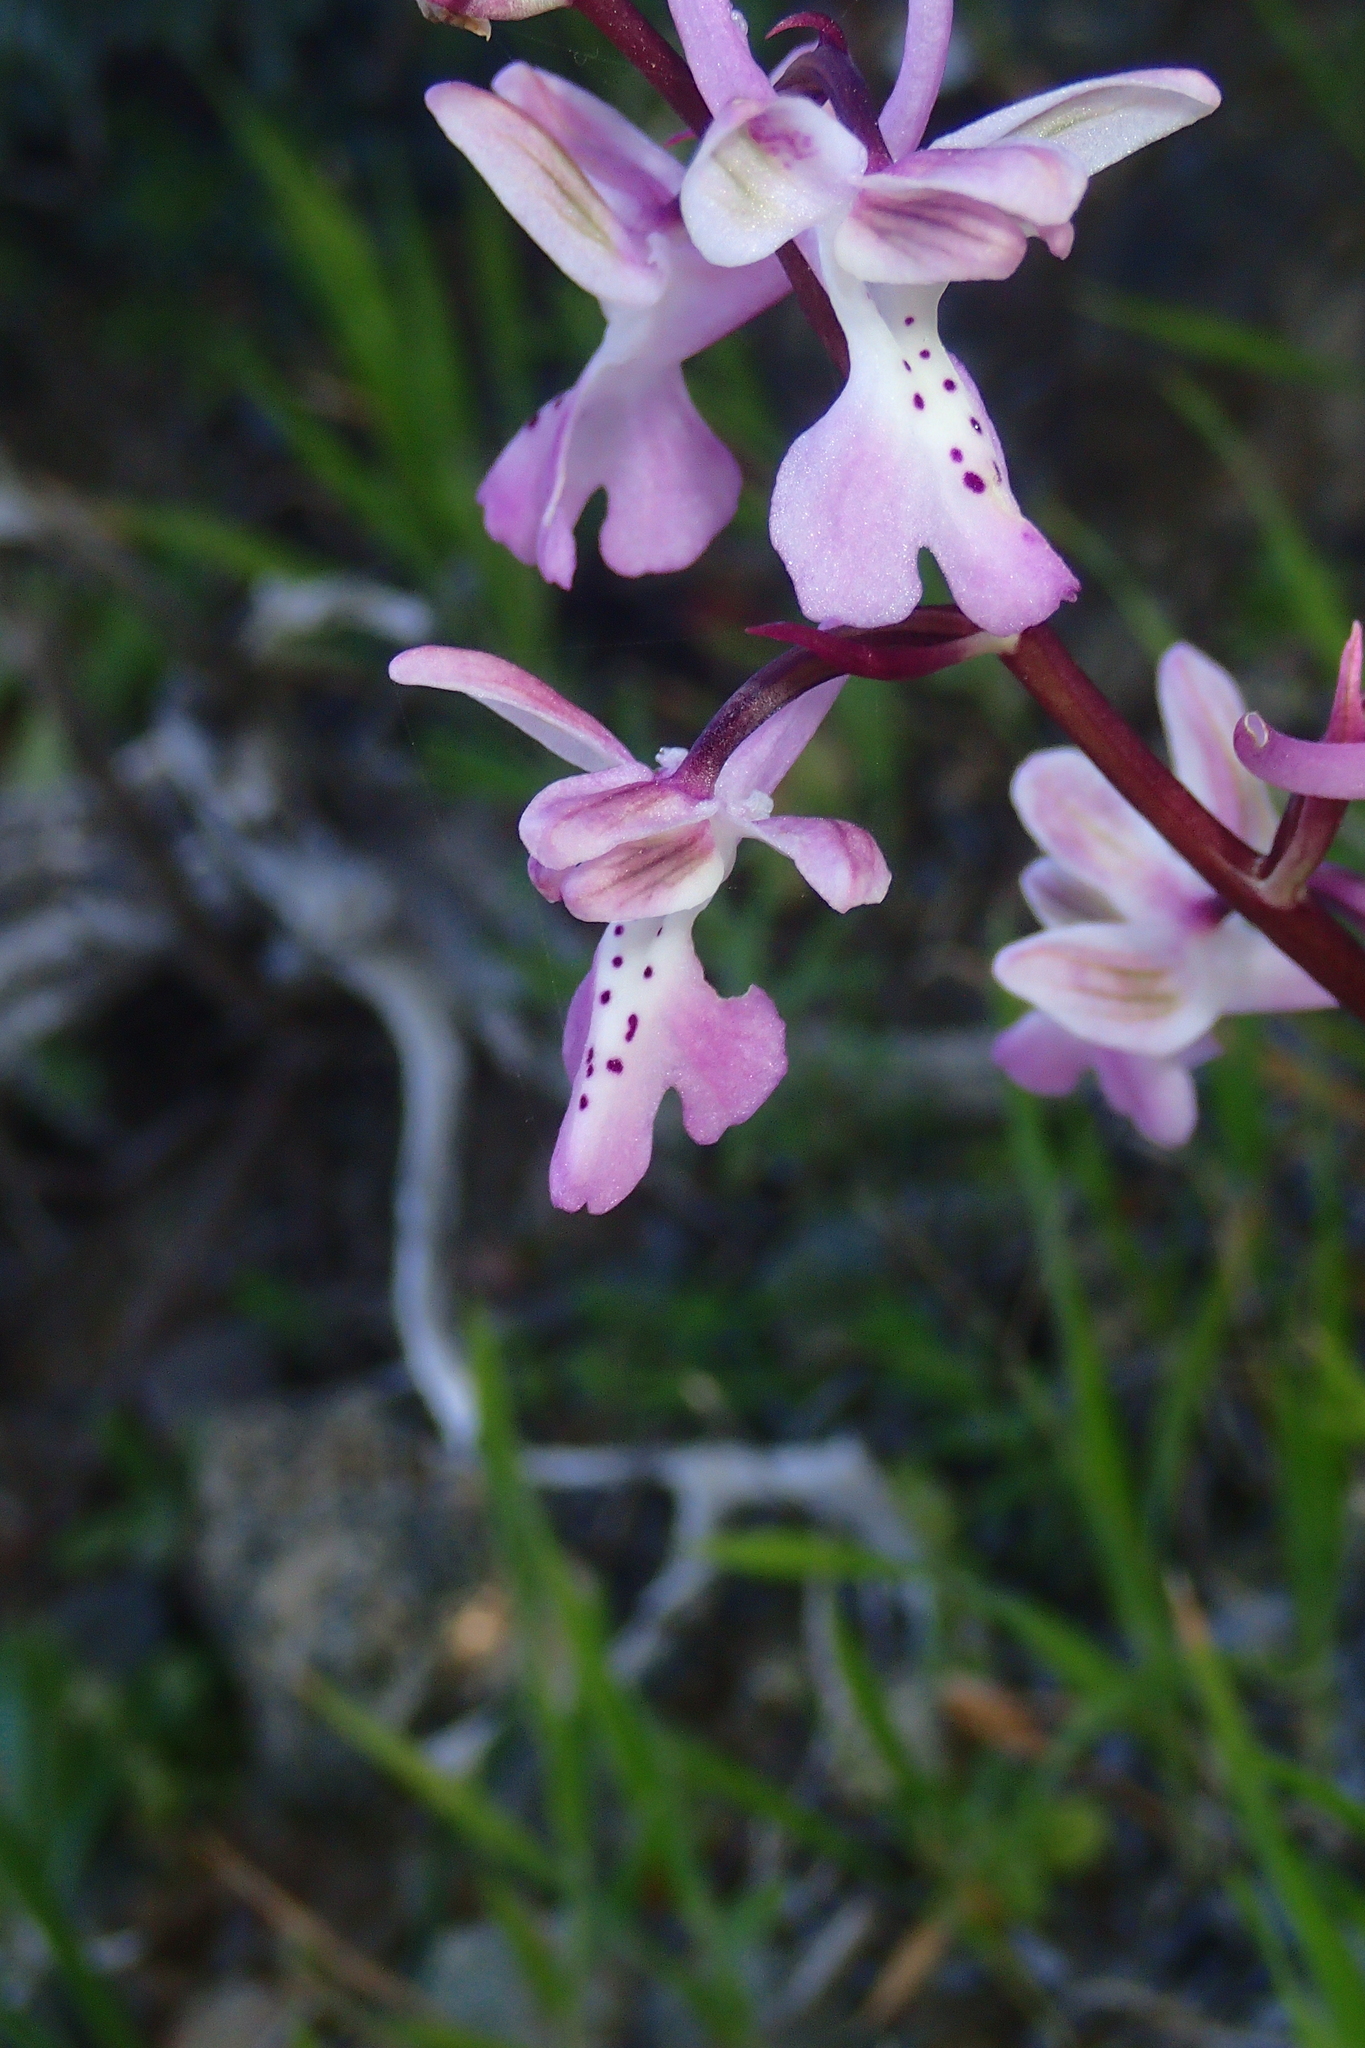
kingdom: Plantae
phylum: Tracheophyta
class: Liliopsida
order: Asparagales
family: Orchidaceae
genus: Orchis
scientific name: Orchis anatolica
